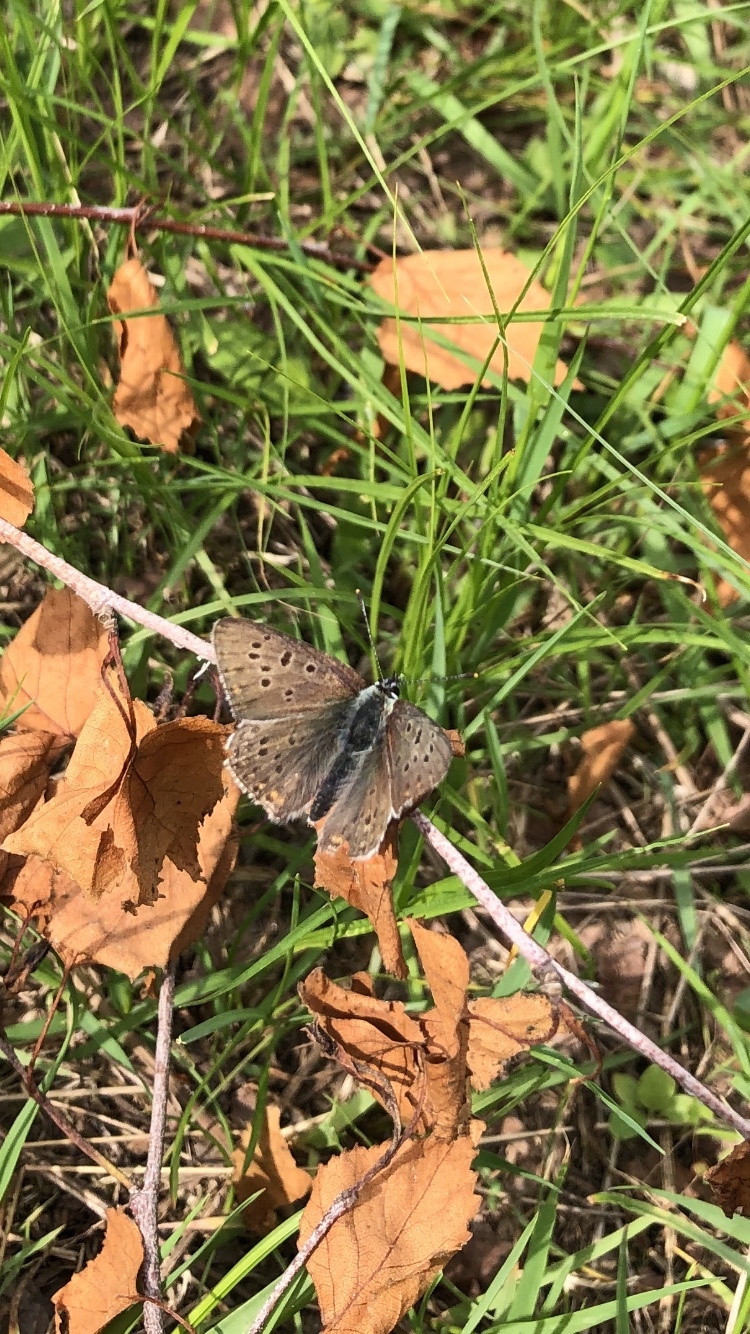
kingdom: Animalia
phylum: Arthropoda
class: Insecta
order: Lepidoptera
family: Lycaenidae
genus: Loweia
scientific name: Loweia tityrus
